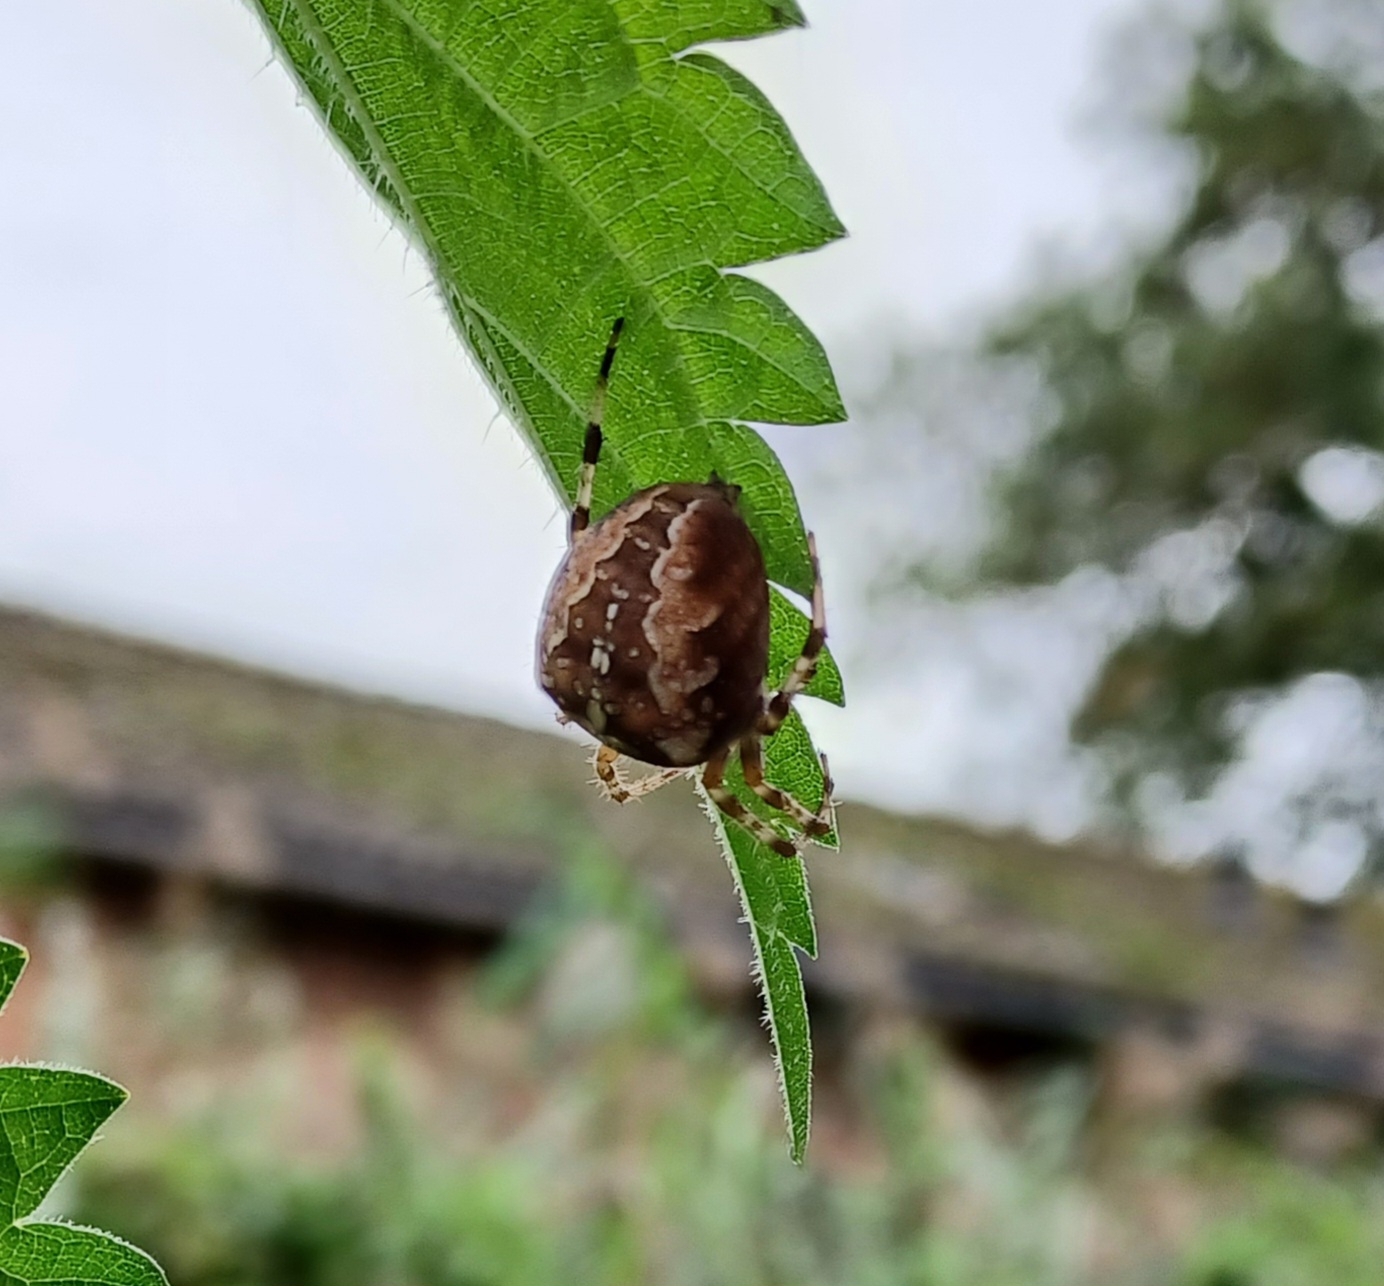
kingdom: Animalia
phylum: Arthropoda
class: Arachnida
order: Araneae
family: Araneidae
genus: Araneus
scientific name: Araneus diadematus
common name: Cross orbweaver
